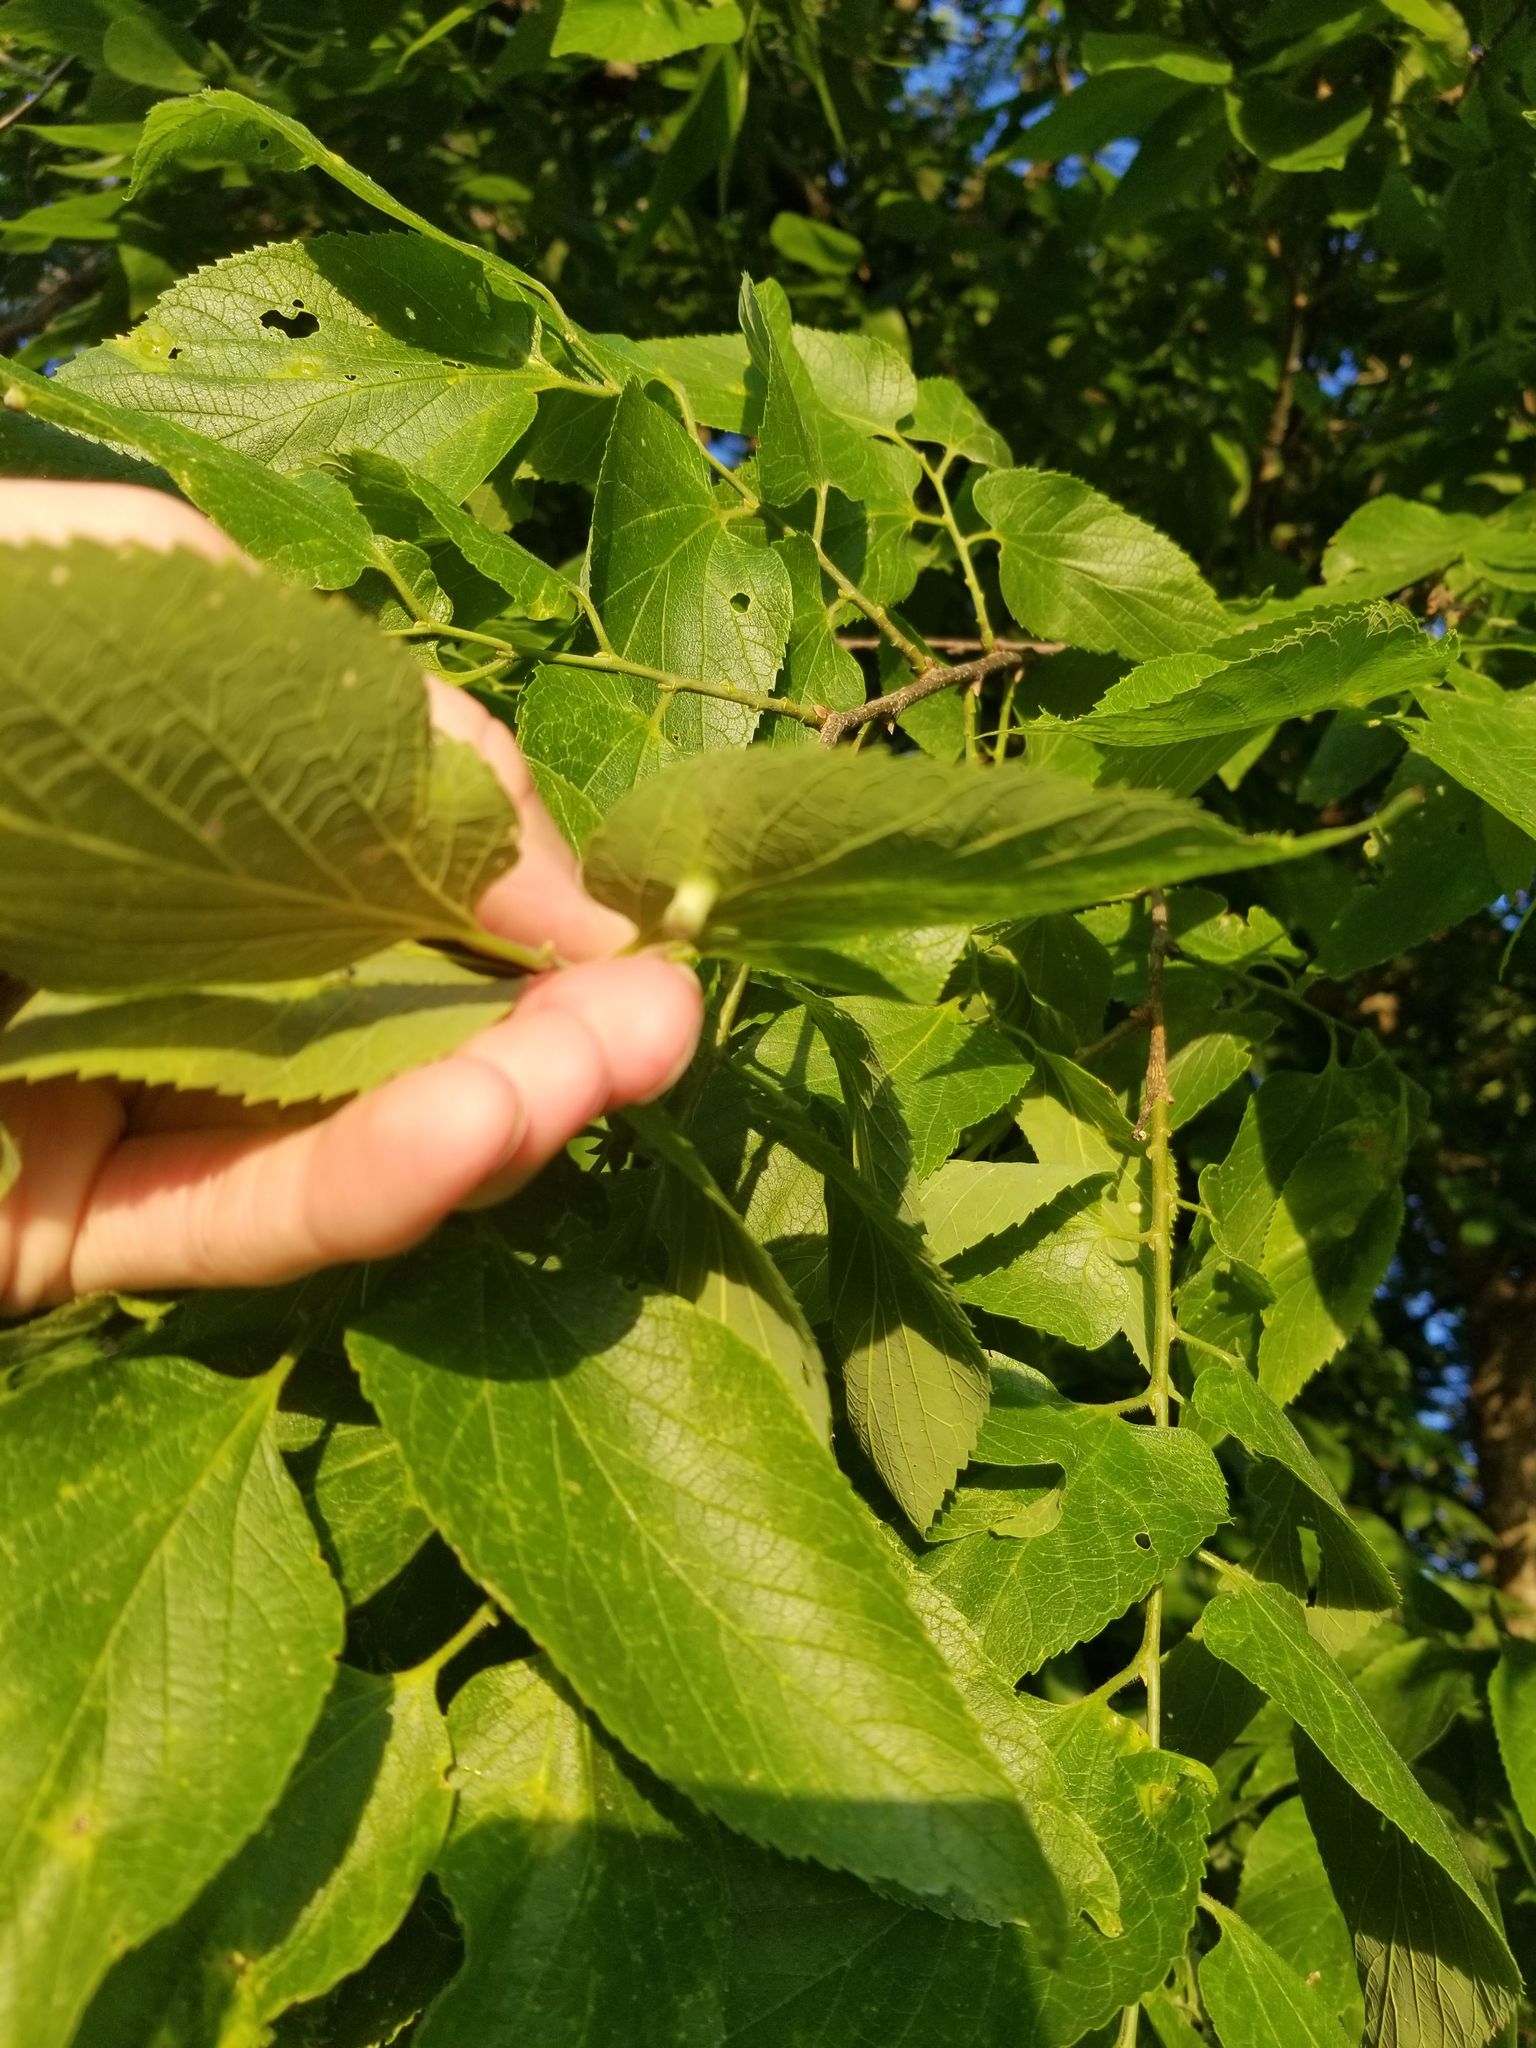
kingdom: Plantae
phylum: Tracheophyta
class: Magnoliopsida
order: Rosales
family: Cannabaceae
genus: Celtis
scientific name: Celtis occidentalis
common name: Common hackberry
